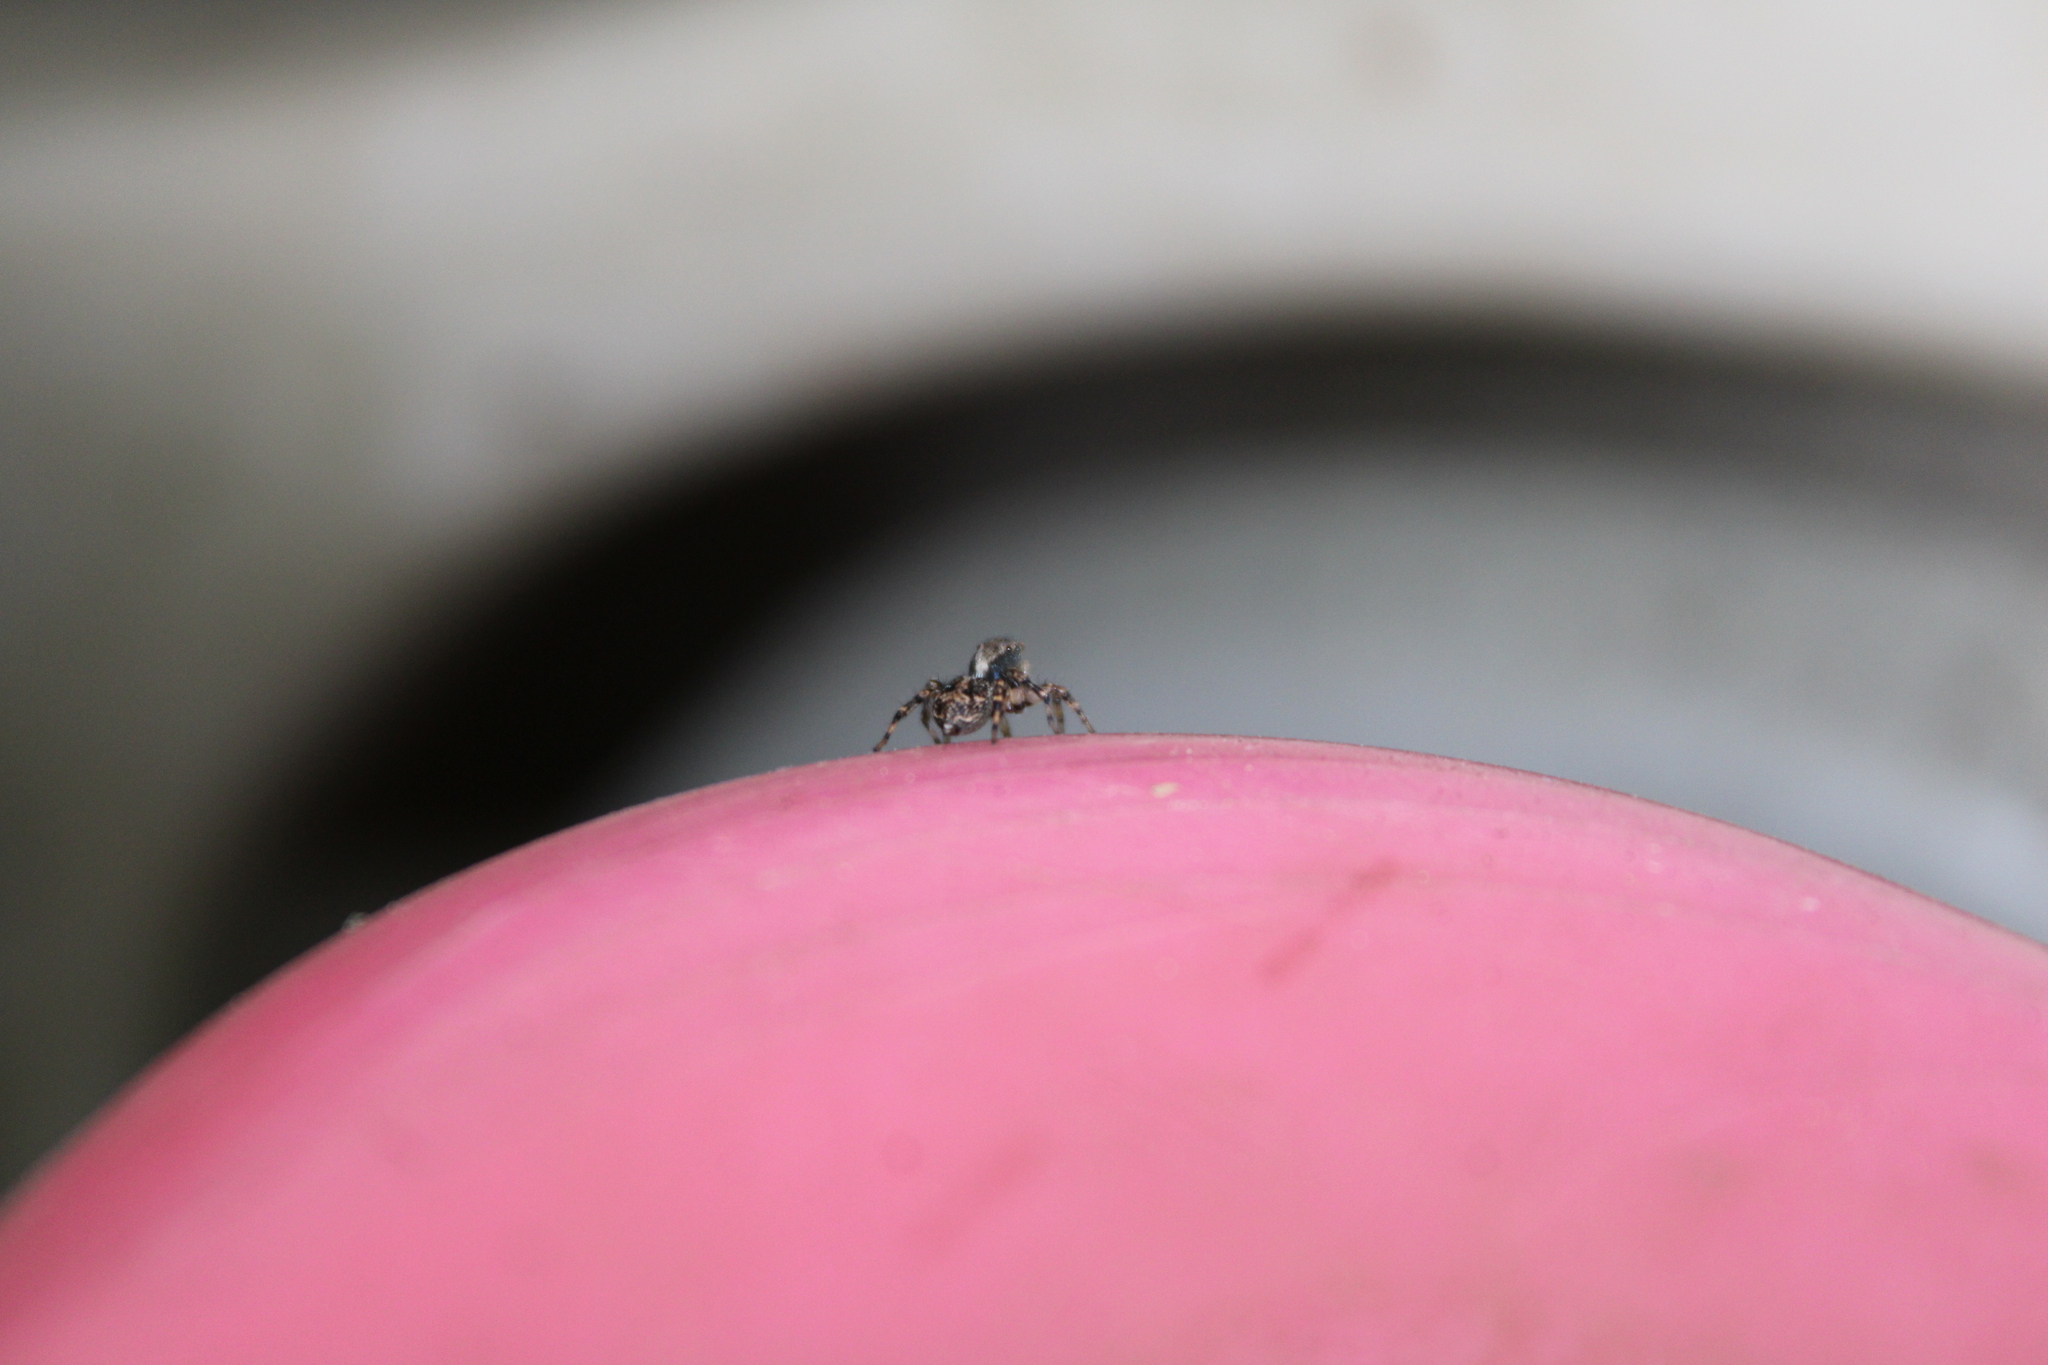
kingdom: Animalia
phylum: Arthropoda
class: Arachnida
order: Araneae
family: Salticidae
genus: Naphrys
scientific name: Naphrys pulex
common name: Flea jumping spider
